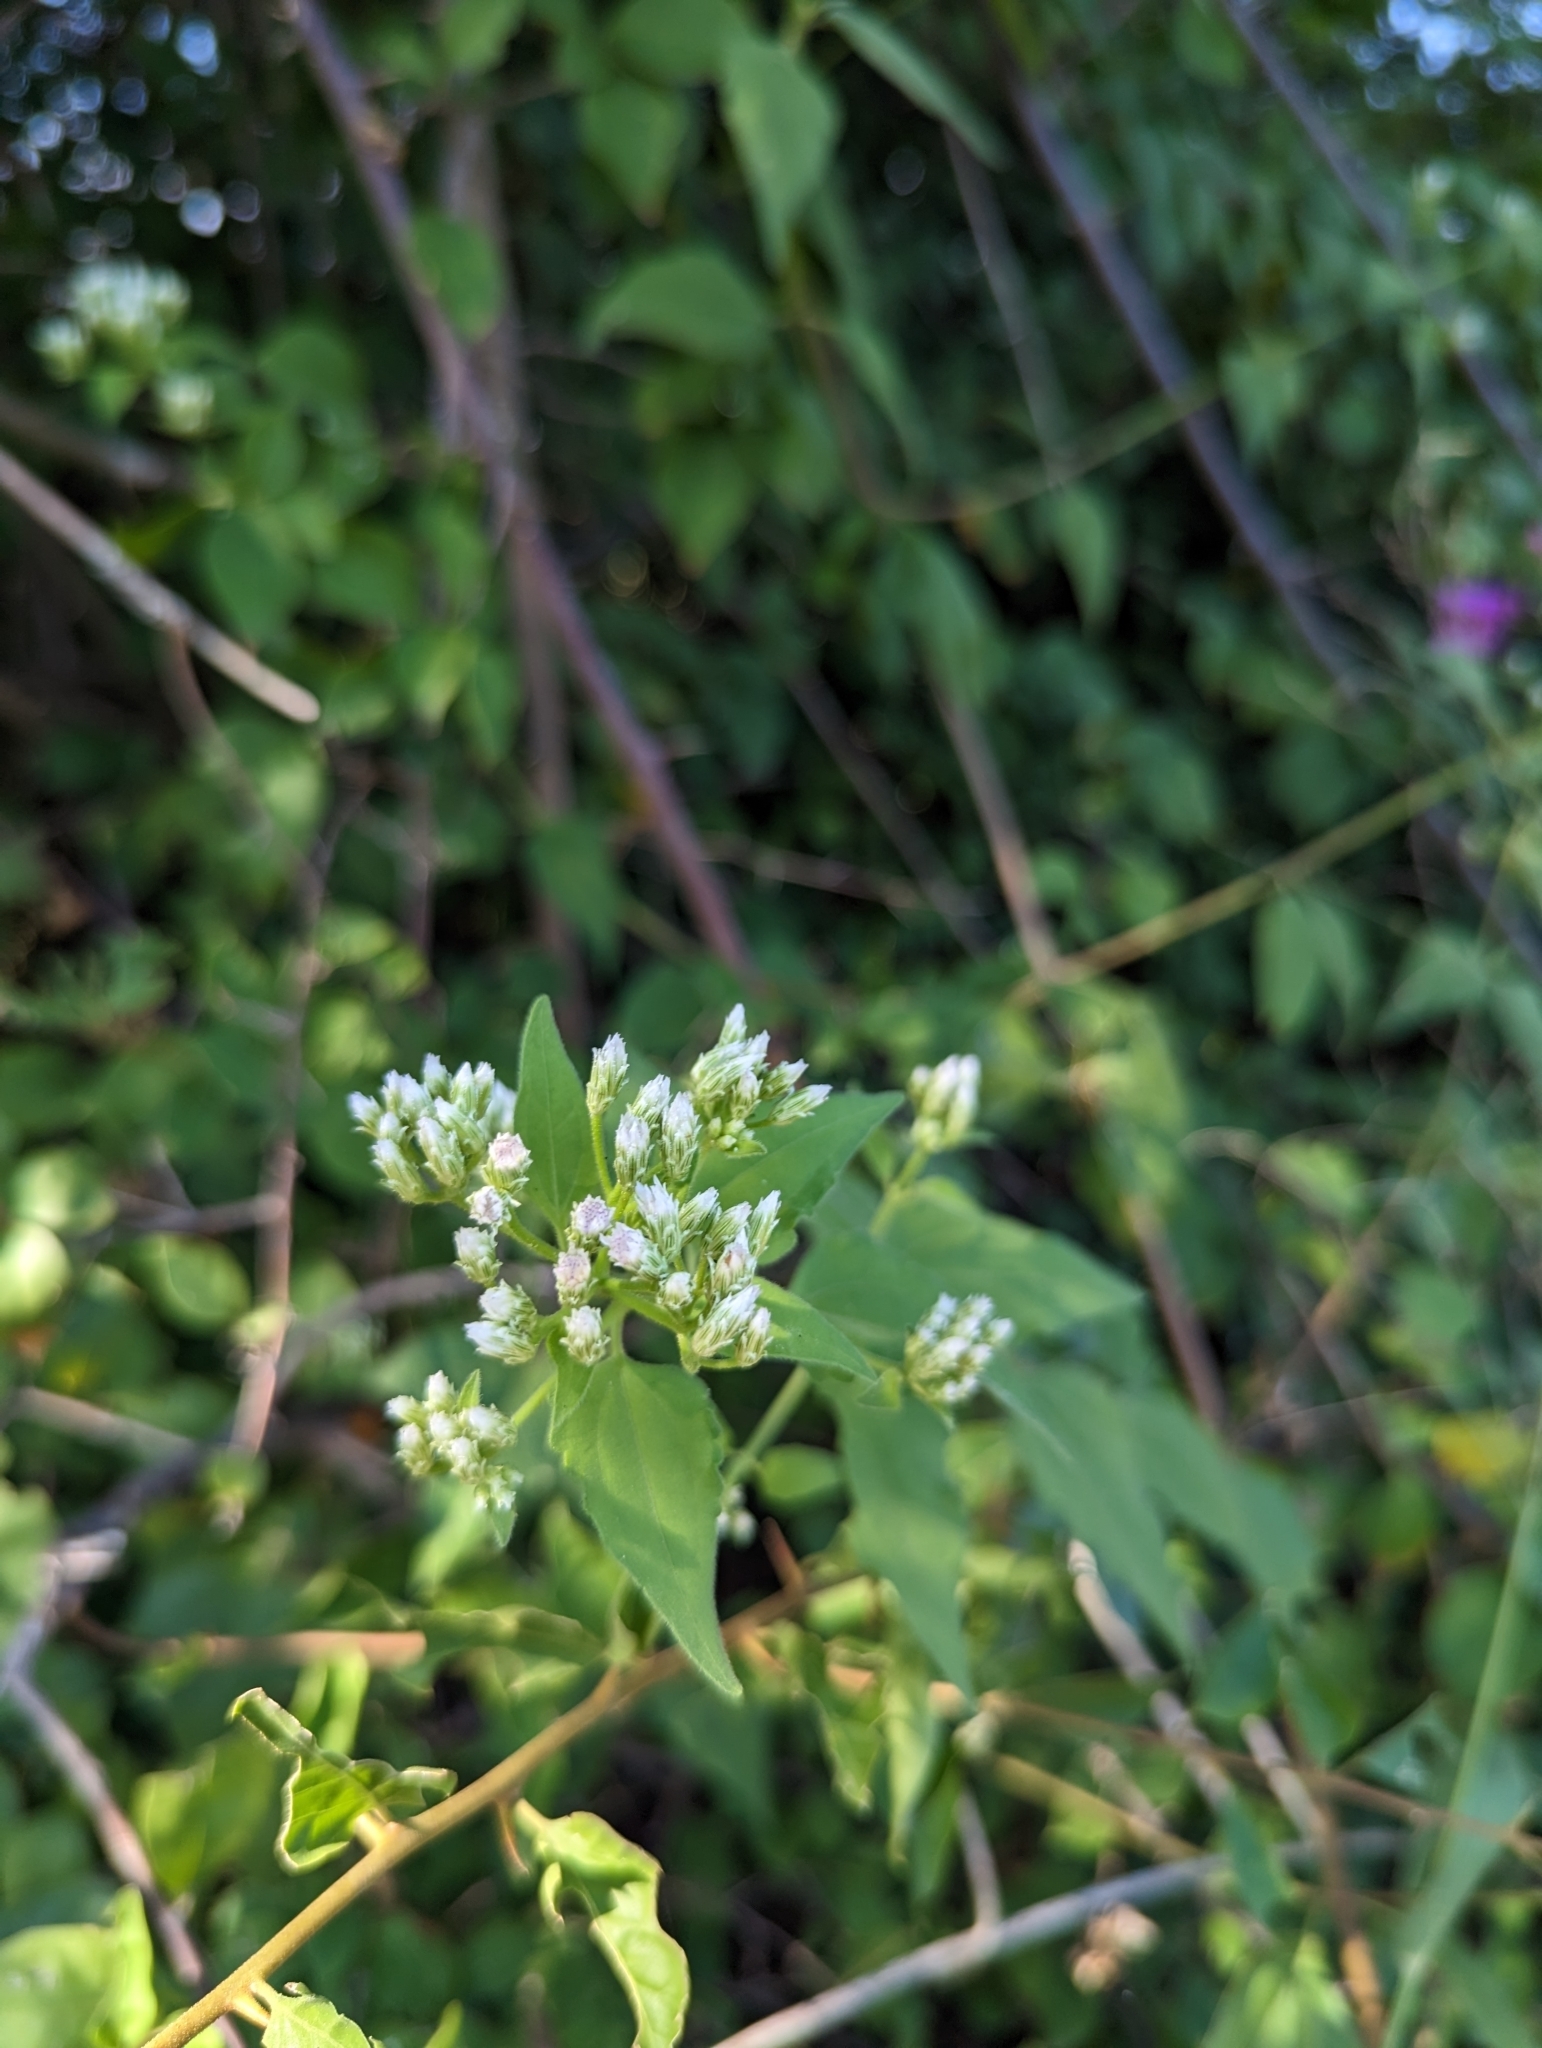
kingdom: Plantae
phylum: Tracheophyta
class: Magnoliopsida
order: Asterales
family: Asteraceae
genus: Chromolaena
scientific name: Chromolaena odorata
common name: Siamweed
